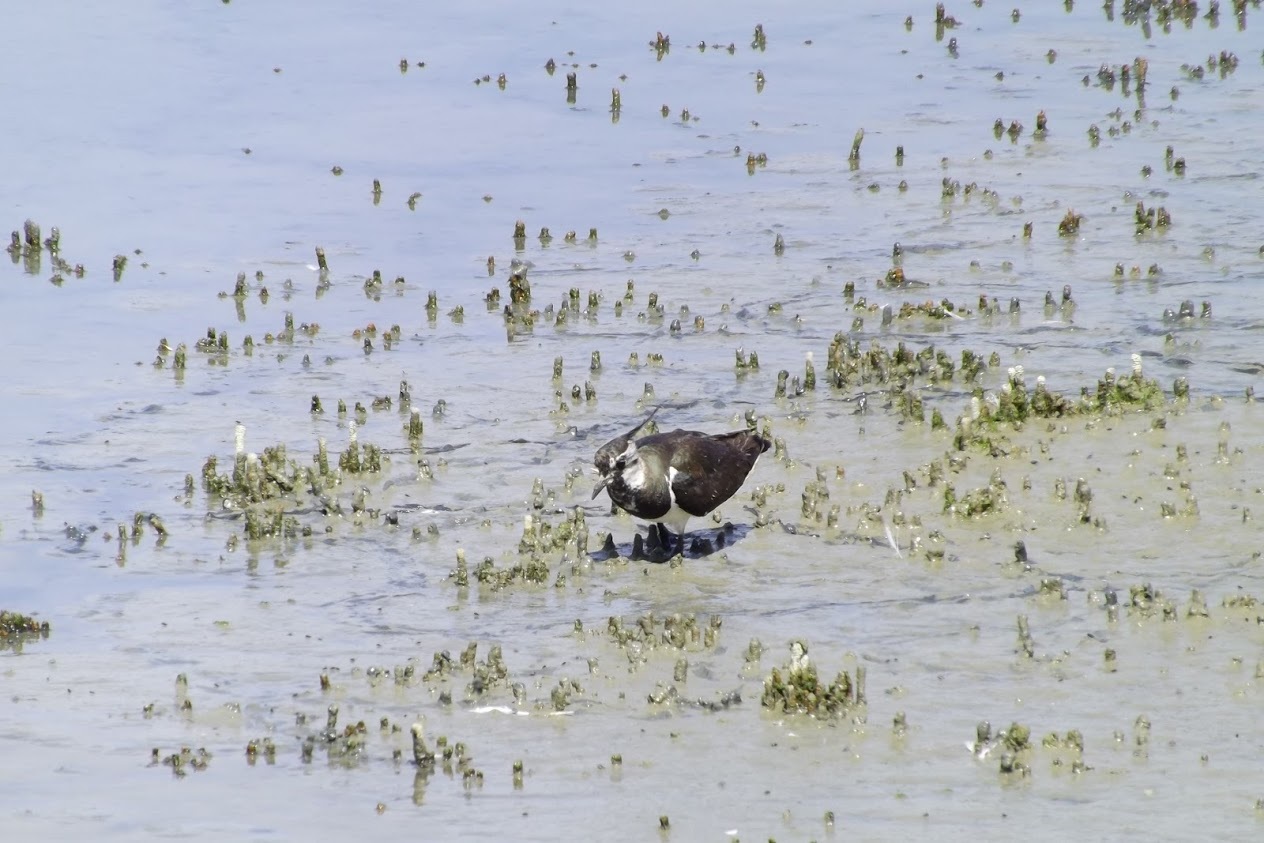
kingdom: Animalia
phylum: Chordata
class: Aves
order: Charadriiformes
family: Charadriidae
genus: Vanellus
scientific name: Vanellus vanellus
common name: Northern lapwing
